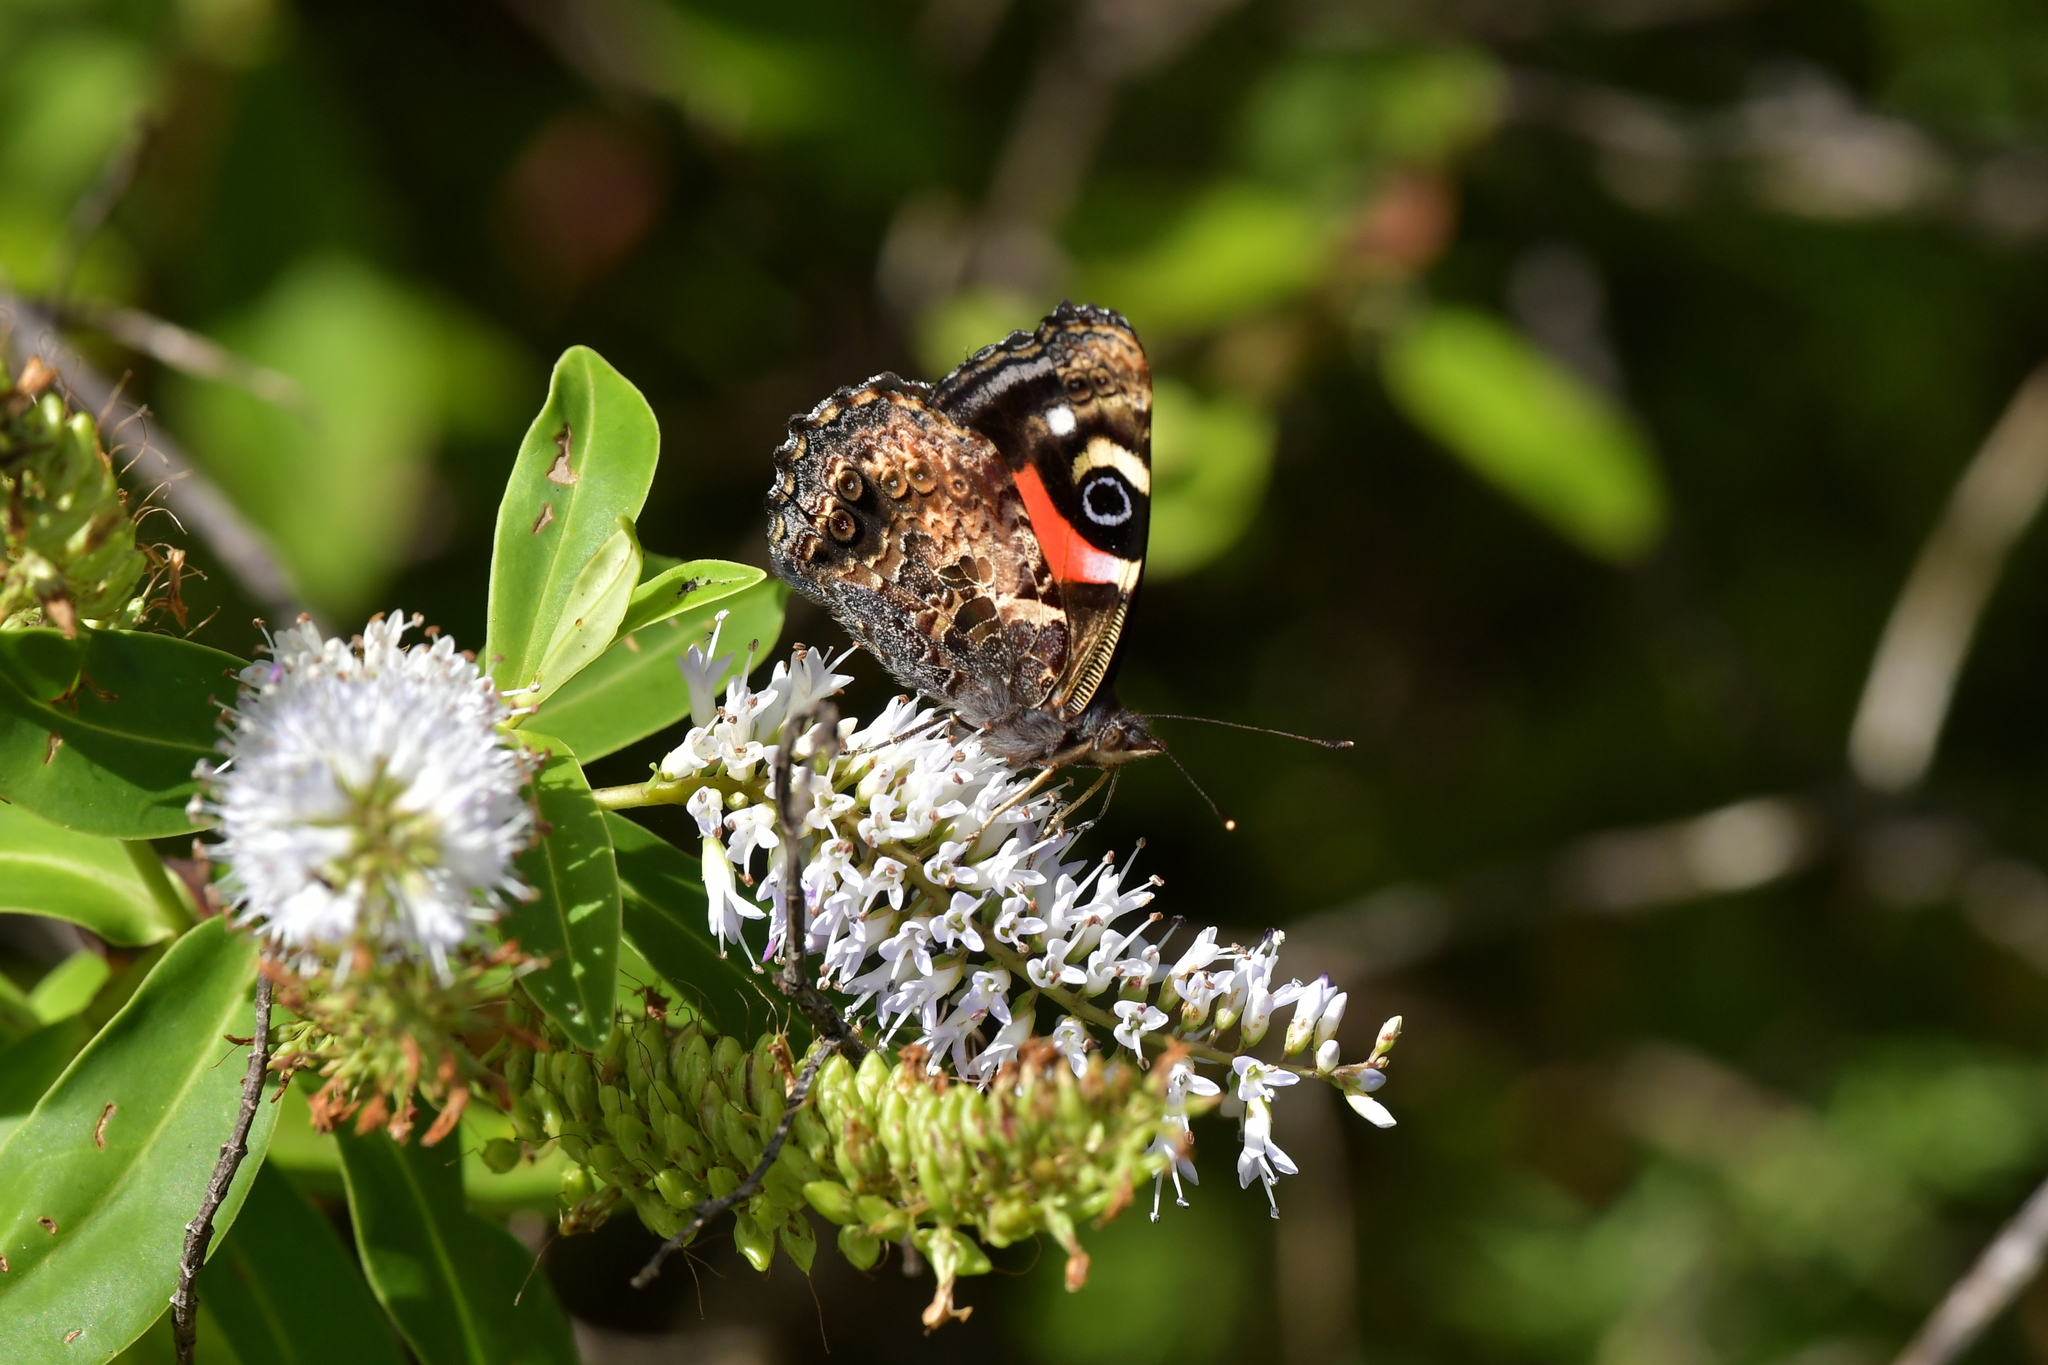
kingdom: Animalia
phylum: Arthropoda
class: Insecta
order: Lepidoptera
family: Nymphalidae
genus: Vanessa
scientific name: Vanessa gonerilla
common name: New zealand red admiral
